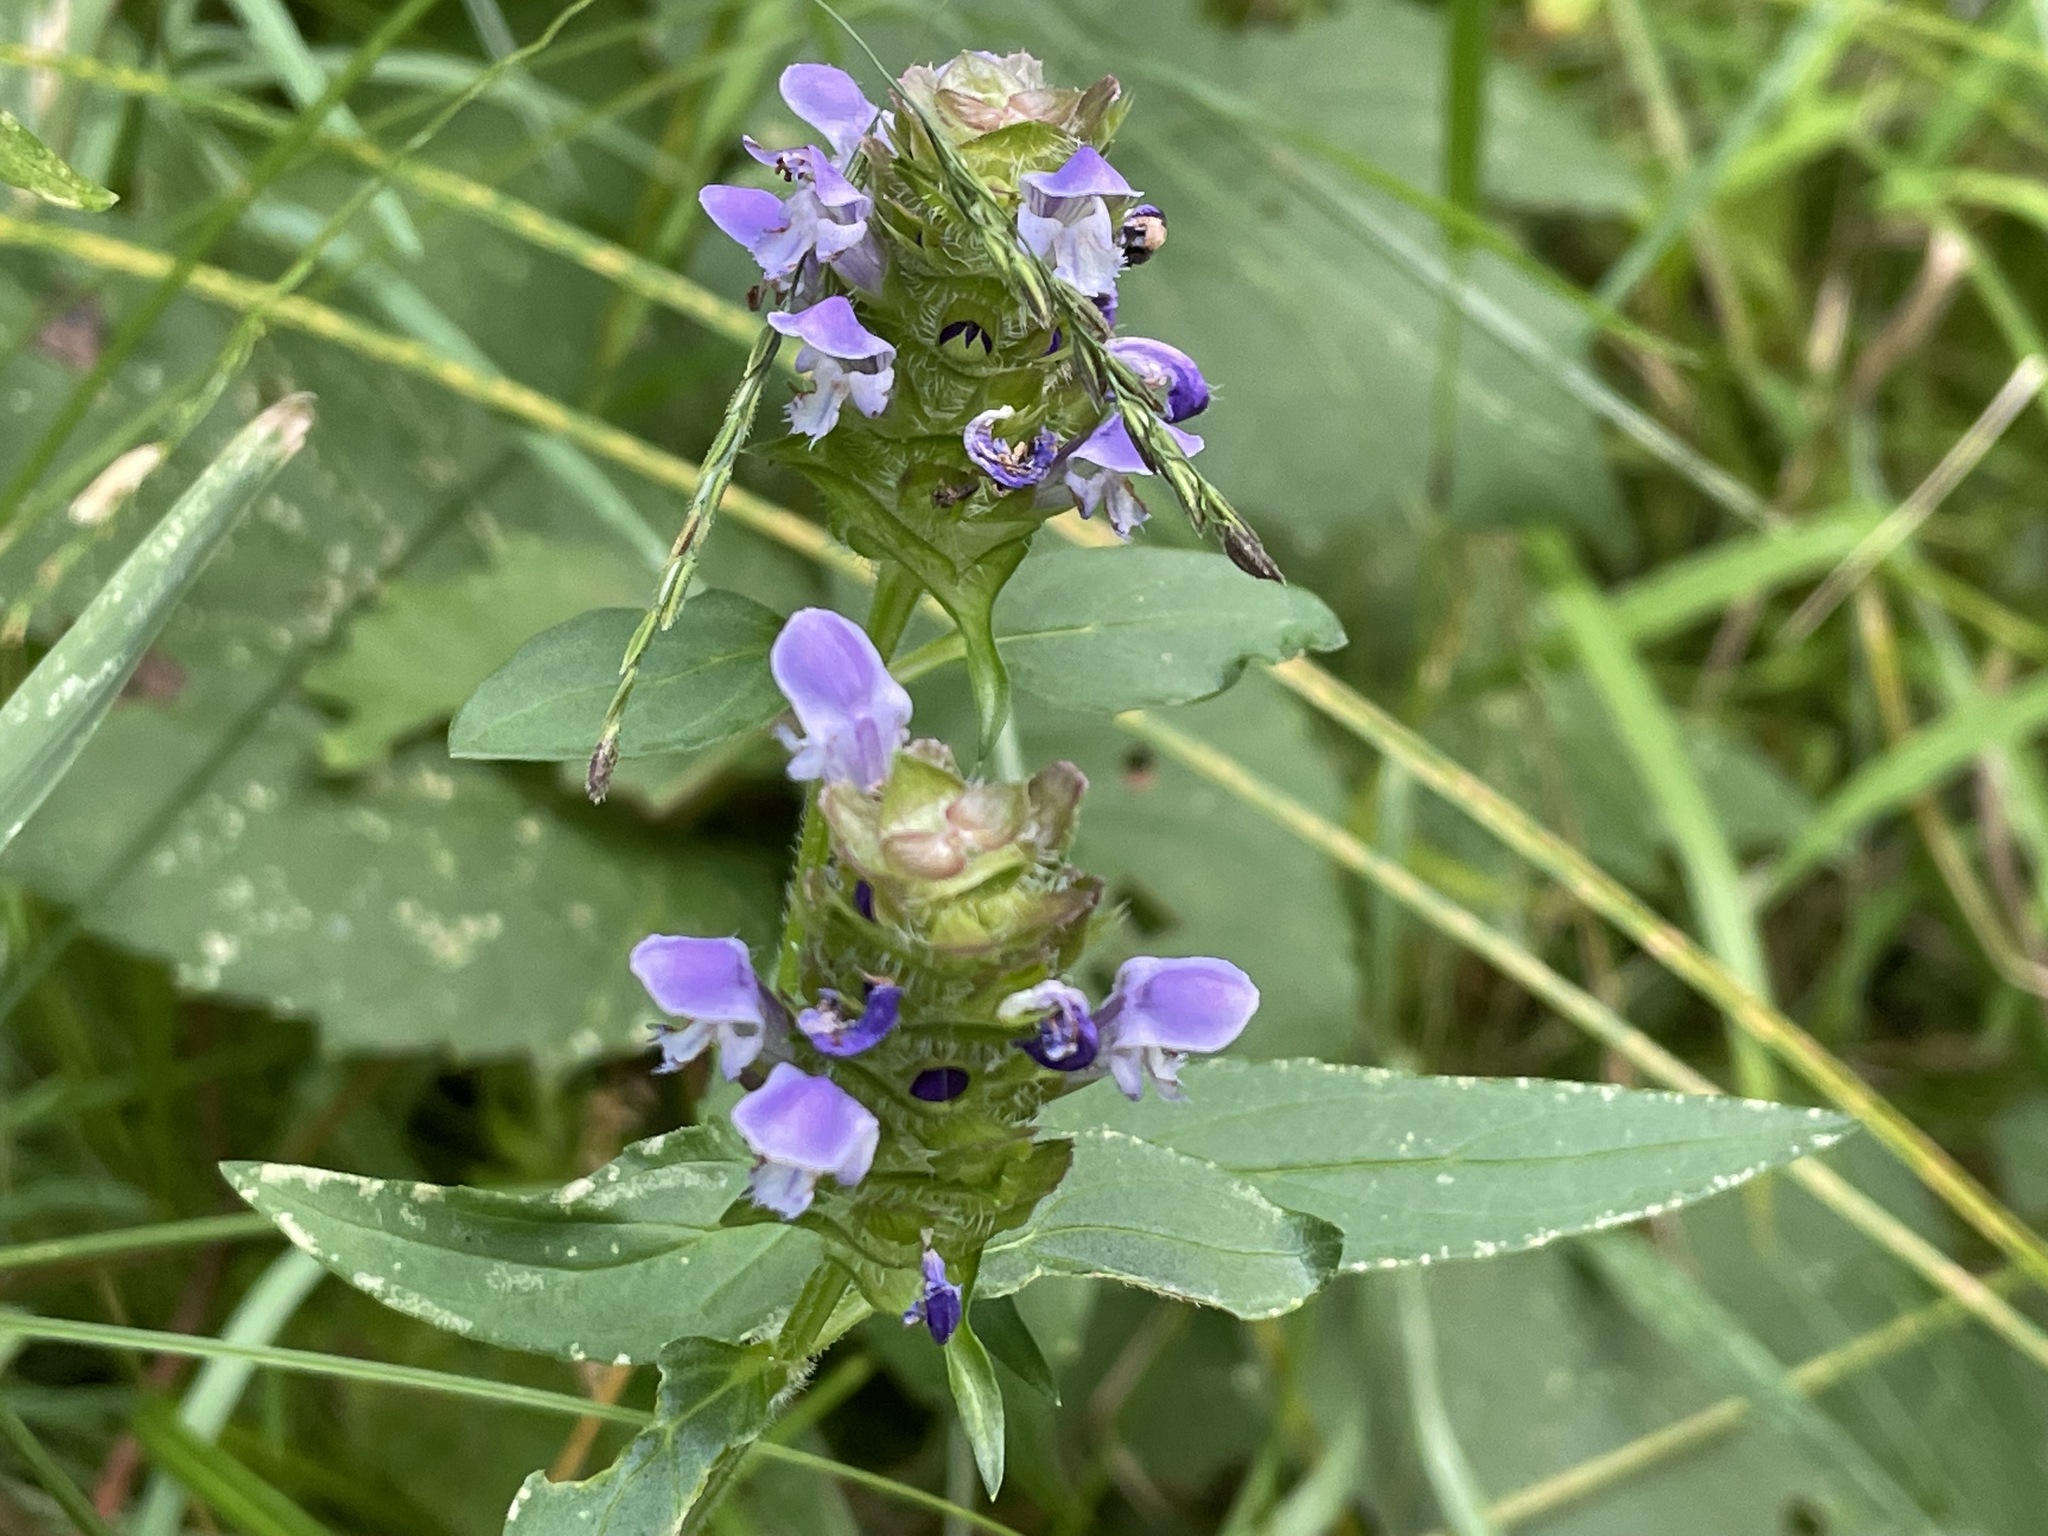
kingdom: Plantae
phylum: Tracheophyta
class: Magnoliopsida
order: Lamiales
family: Lamiaceae
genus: Prunella
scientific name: Prunella vulgaris
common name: Heal-all
